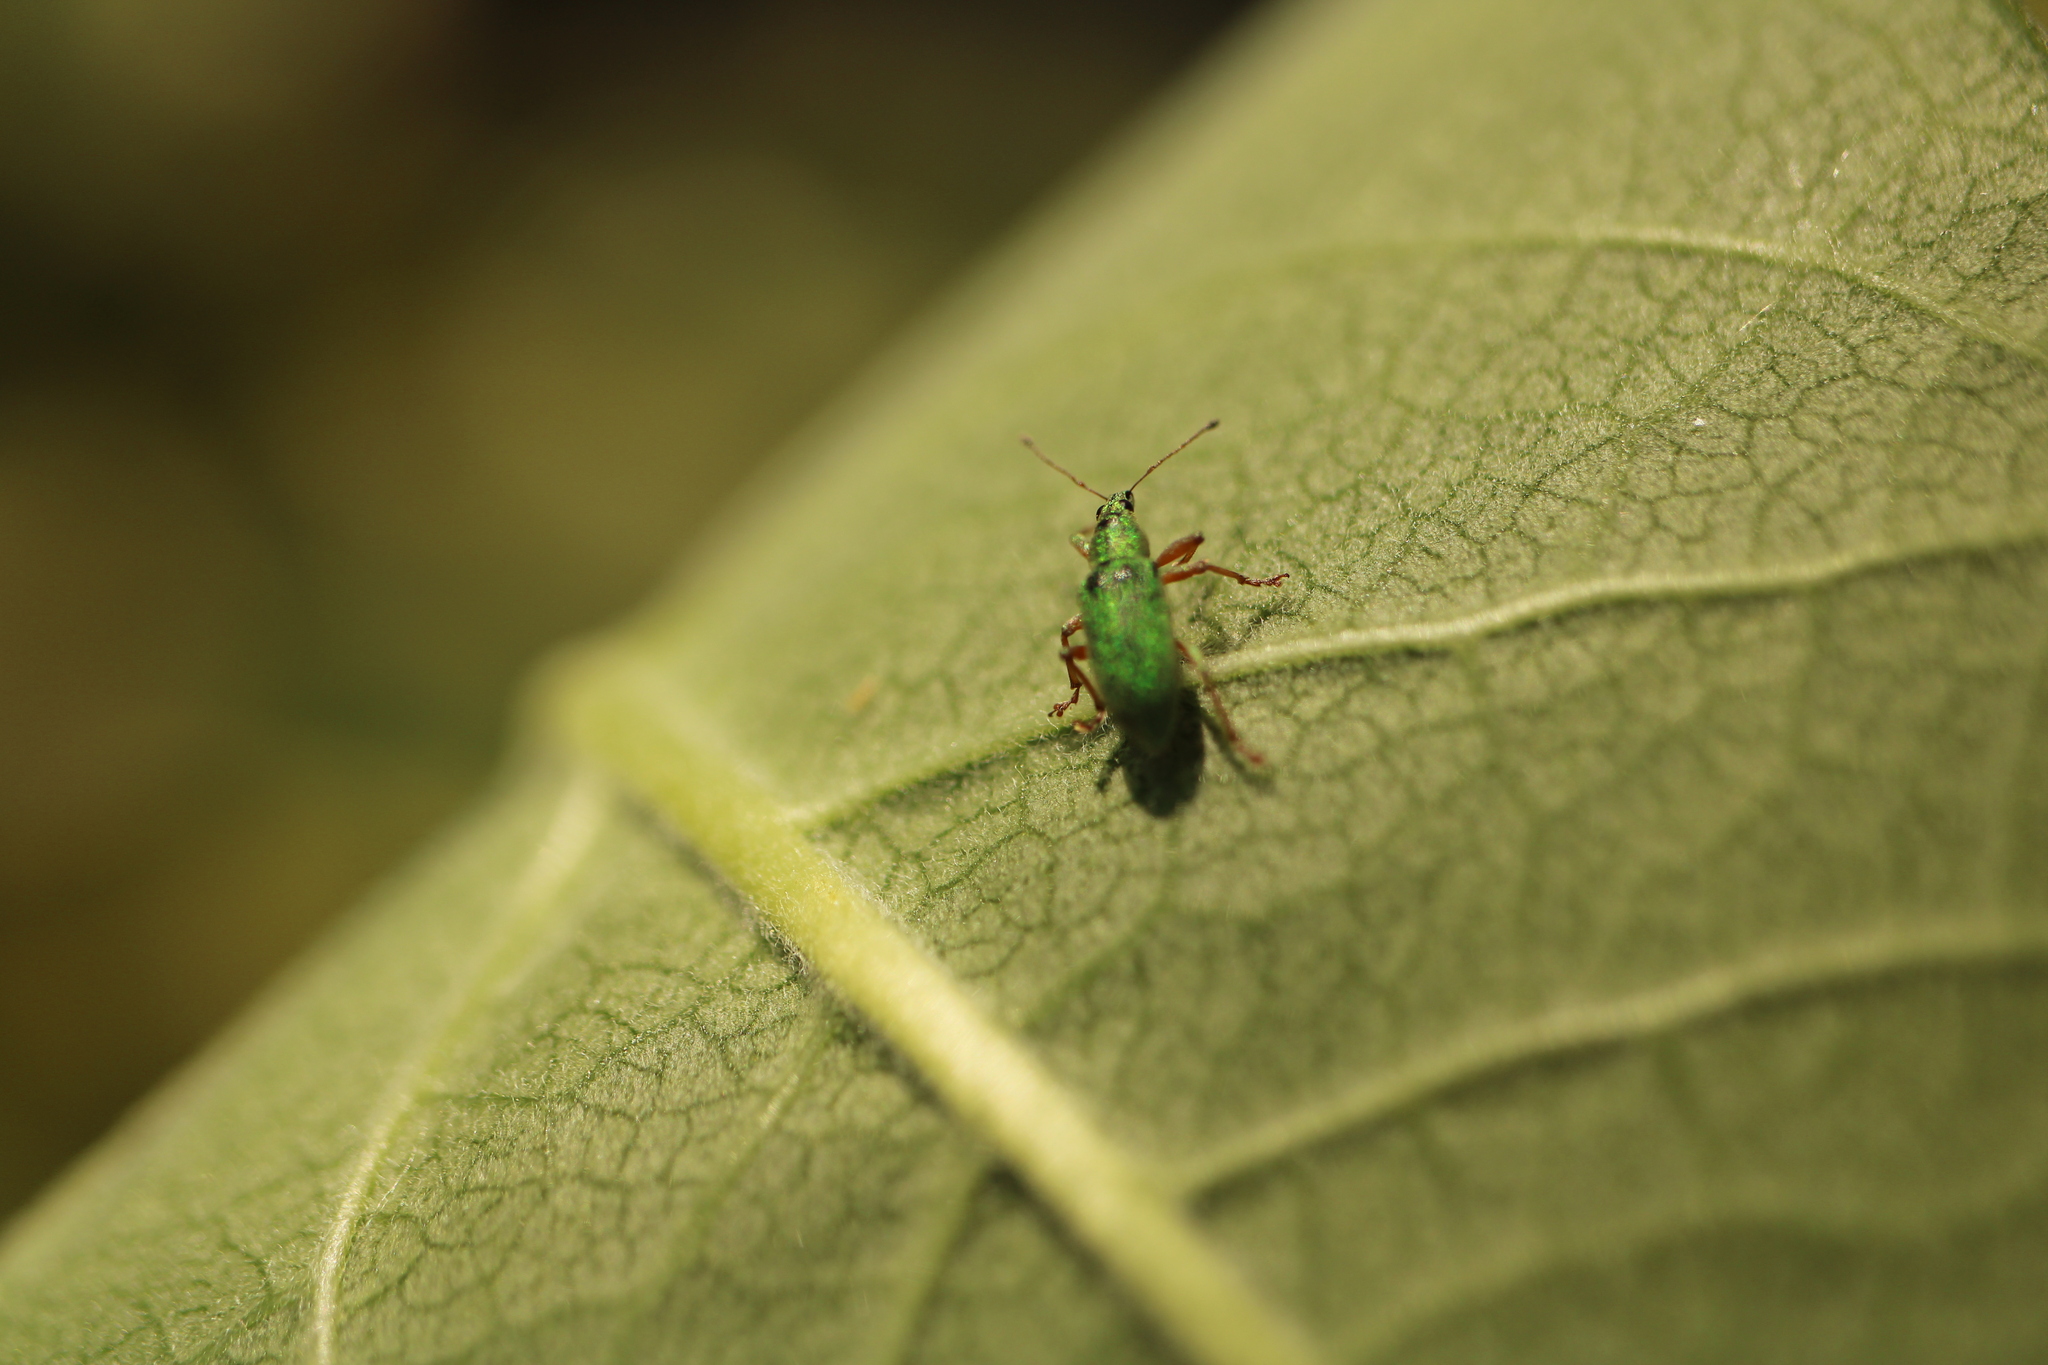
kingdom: Animalia
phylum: Arthropoda
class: Insecta
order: Coleoptera
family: Curculionidae
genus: Polydrusus
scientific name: Polydrusus formosus
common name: Weevil
